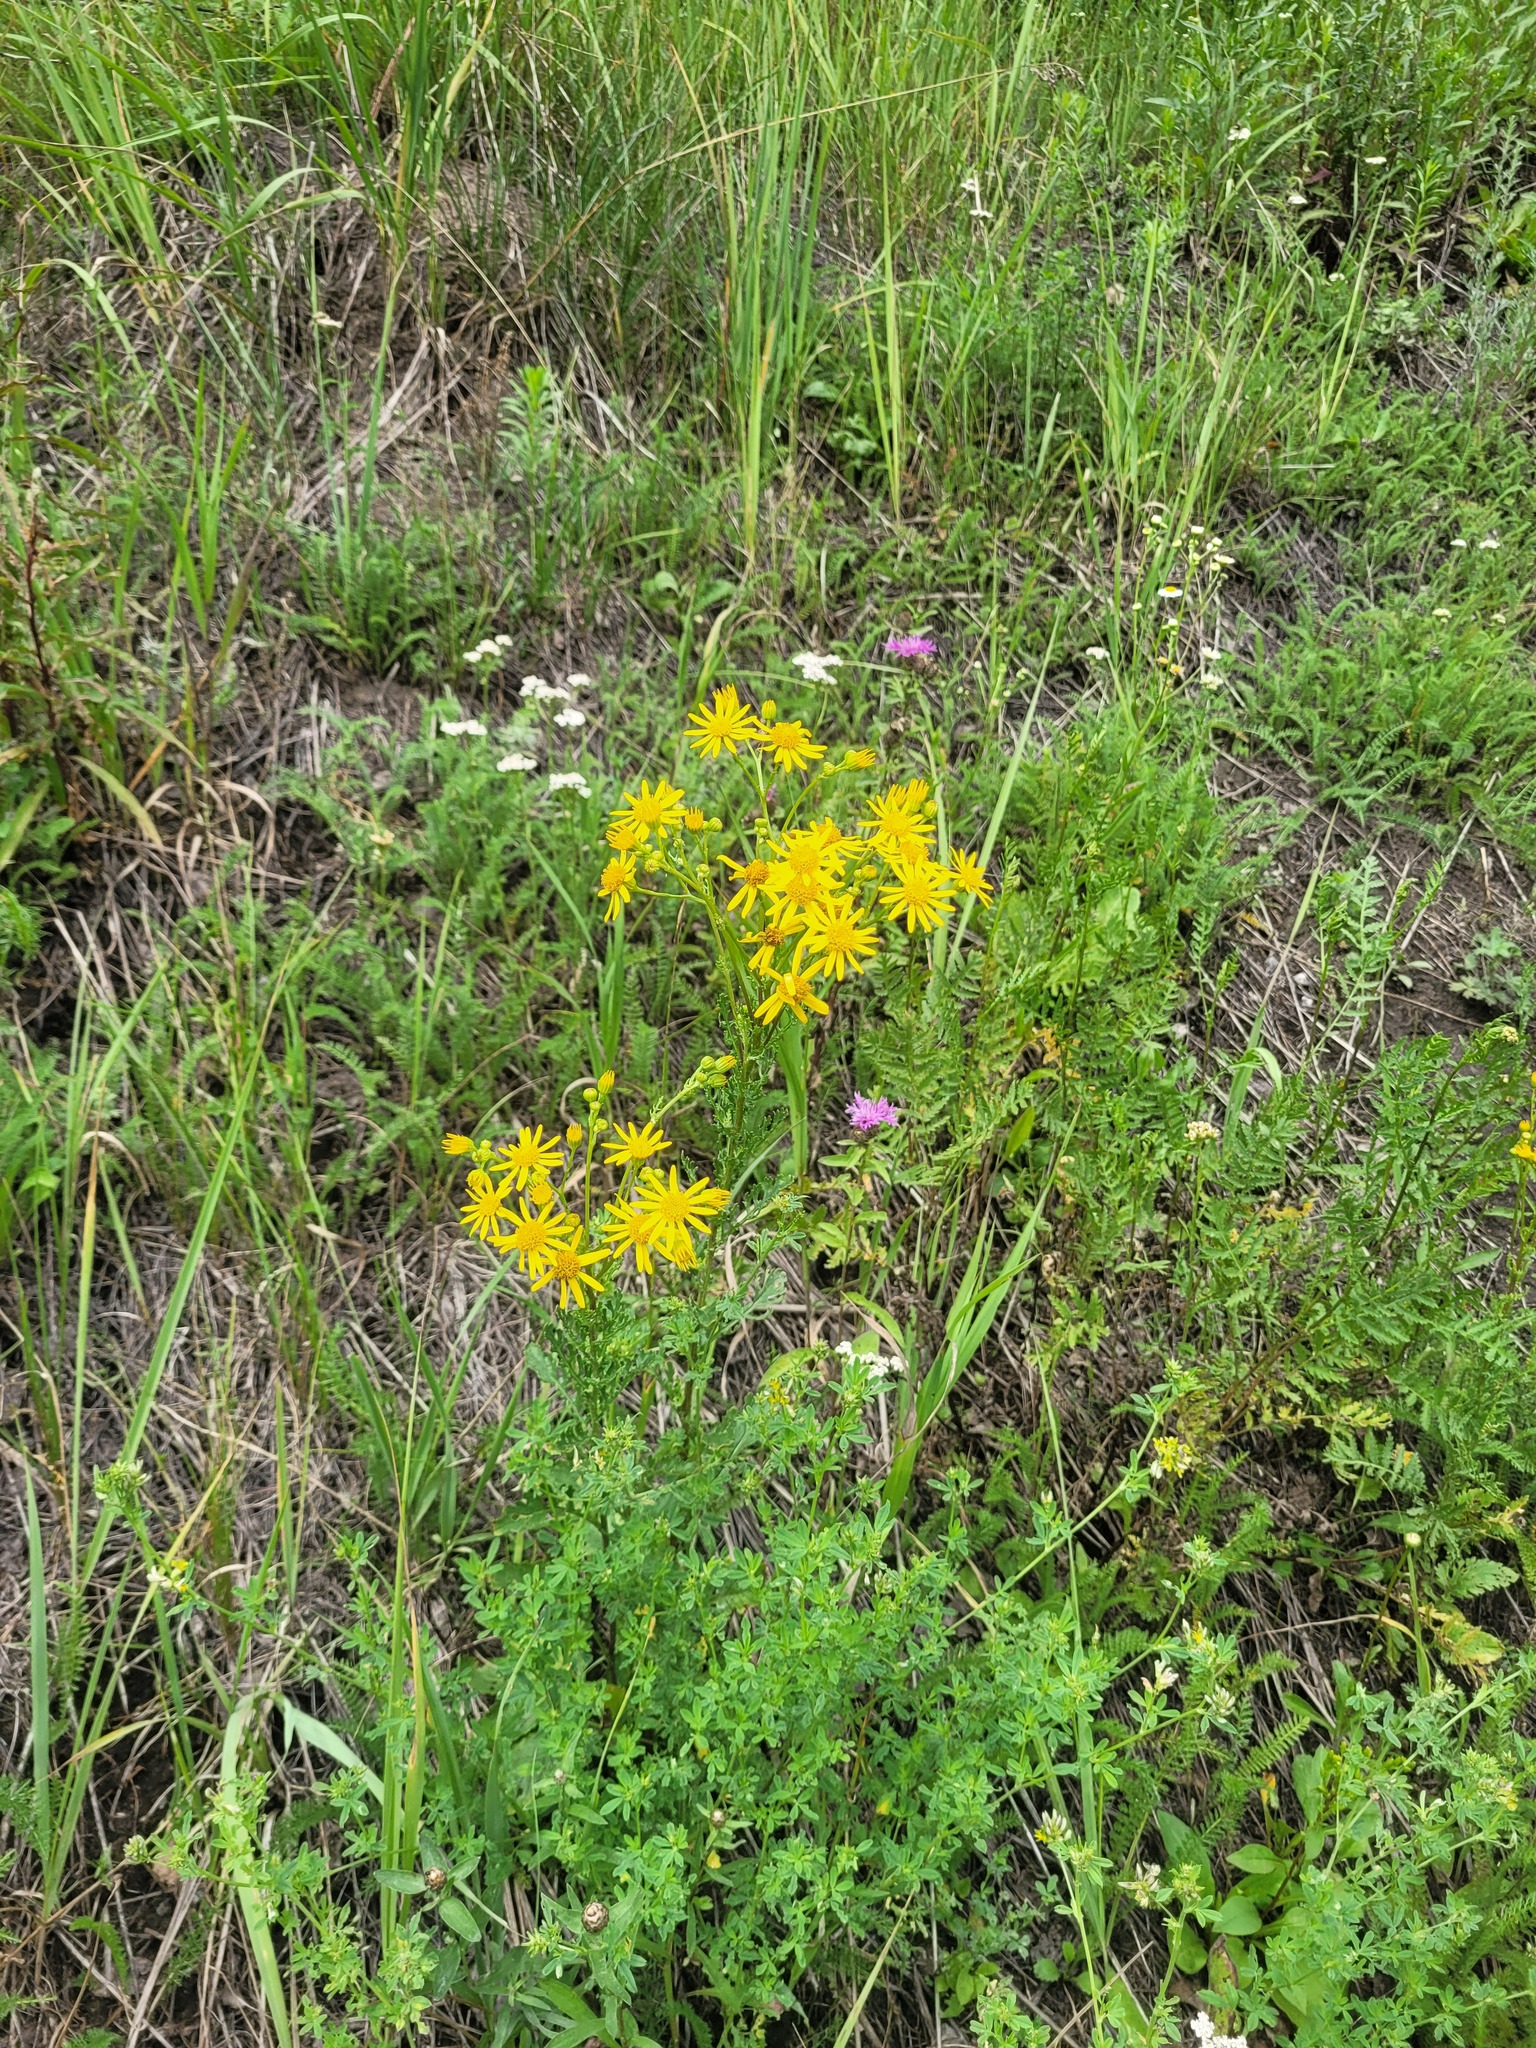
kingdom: Plantae
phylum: Tracheophyta
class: Magnoliopsida
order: Asterales
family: Asteraceae
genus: Jacobaea
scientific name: Jacobaea vulgaris
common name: Stinking willie
